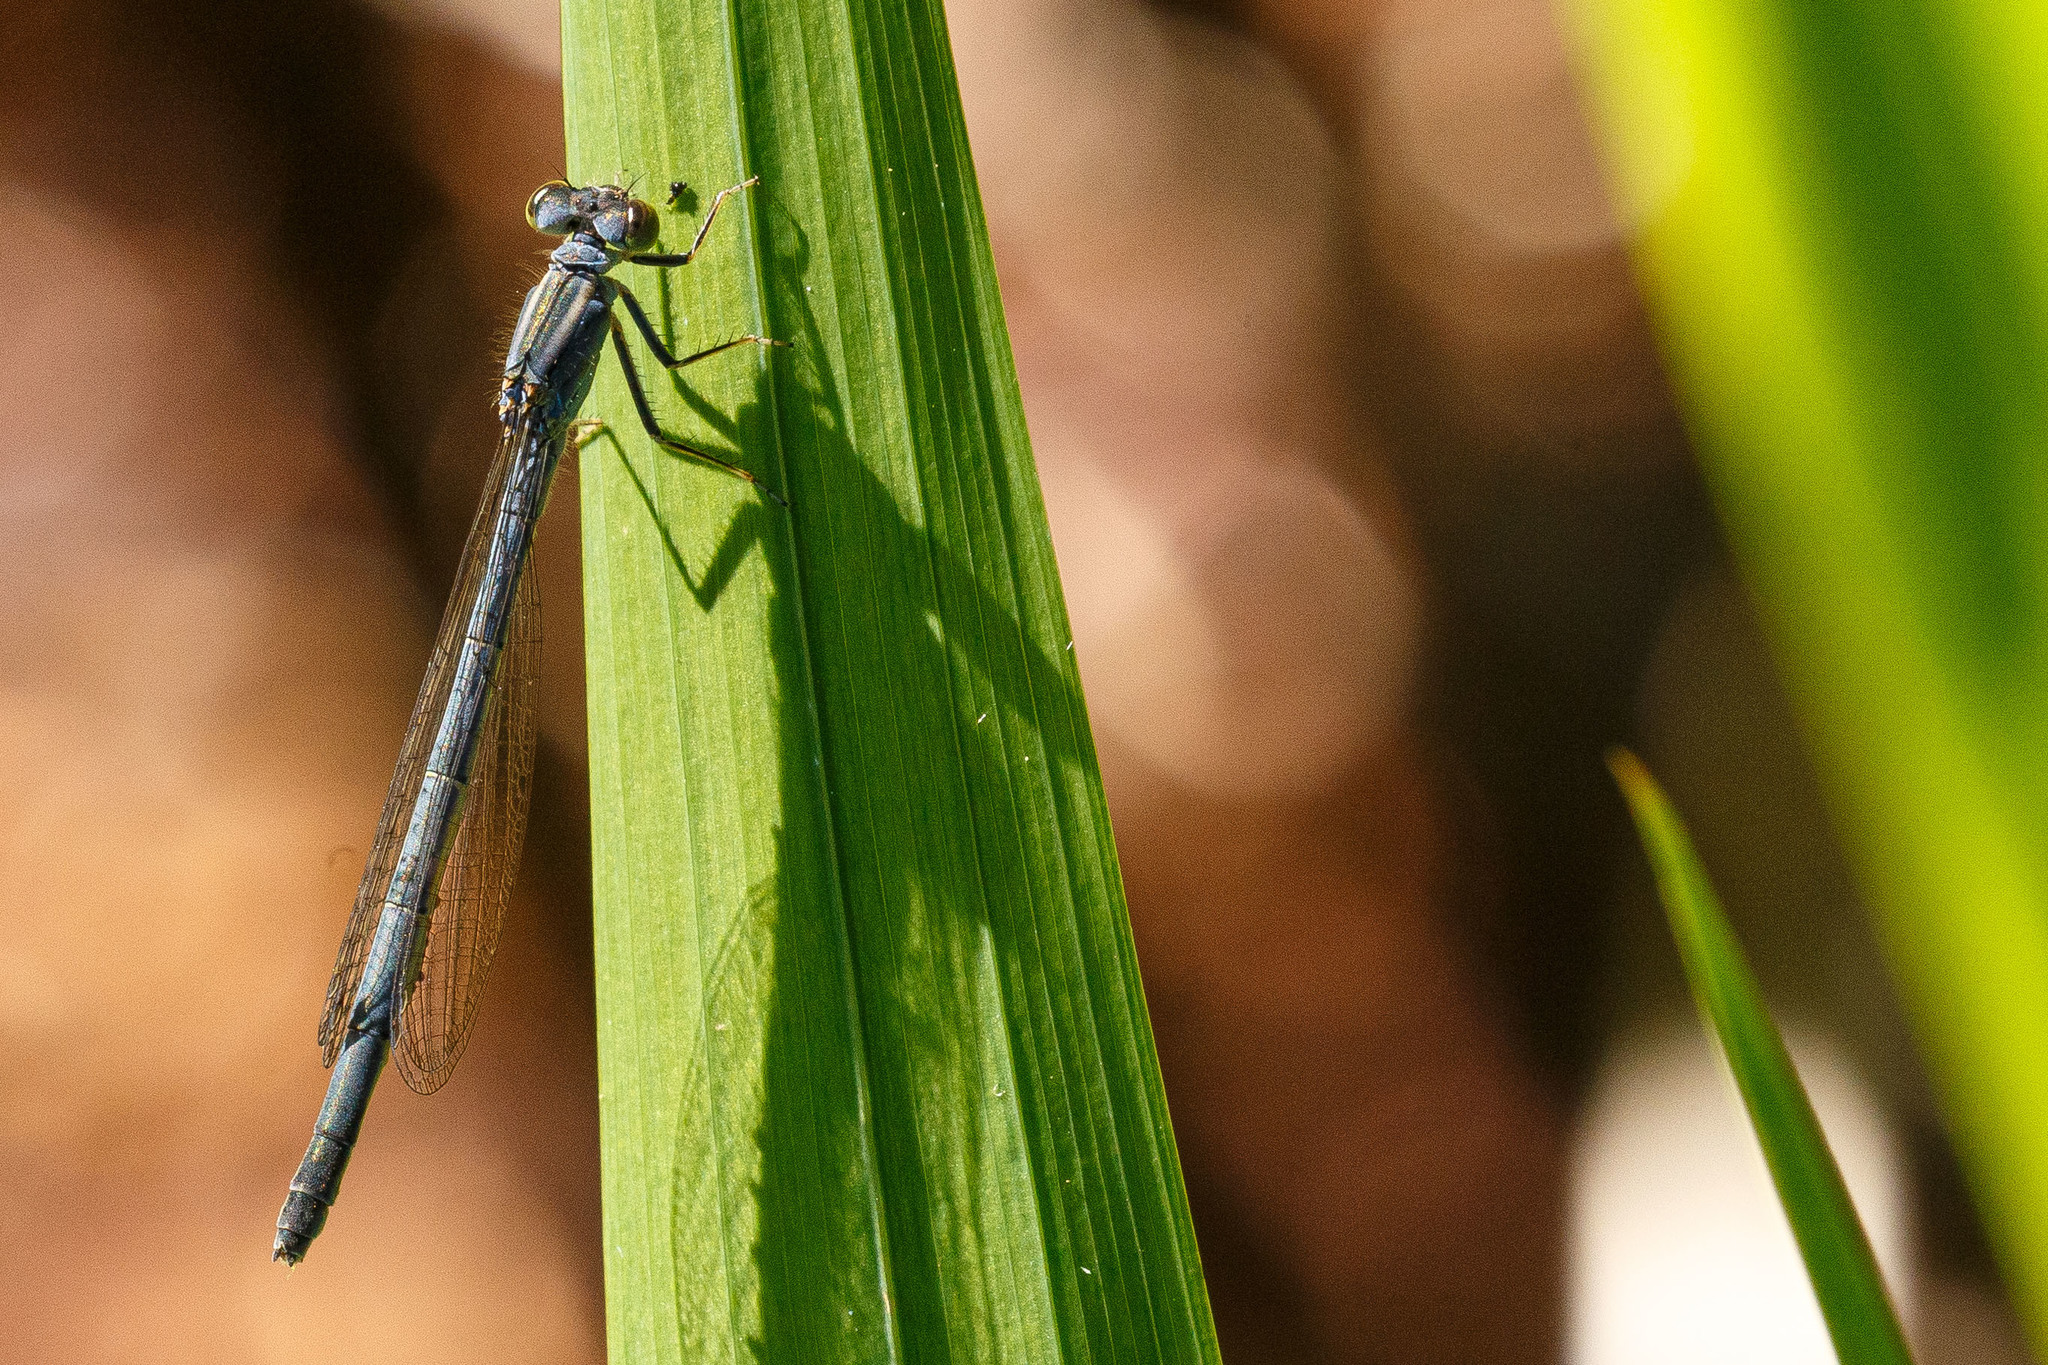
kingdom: Animalia
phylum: Arthropoda
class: Insecta
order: Odonata
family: Coenagrionidae
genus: Ischnura
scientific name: Ischnura perparva
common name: Western forktail
